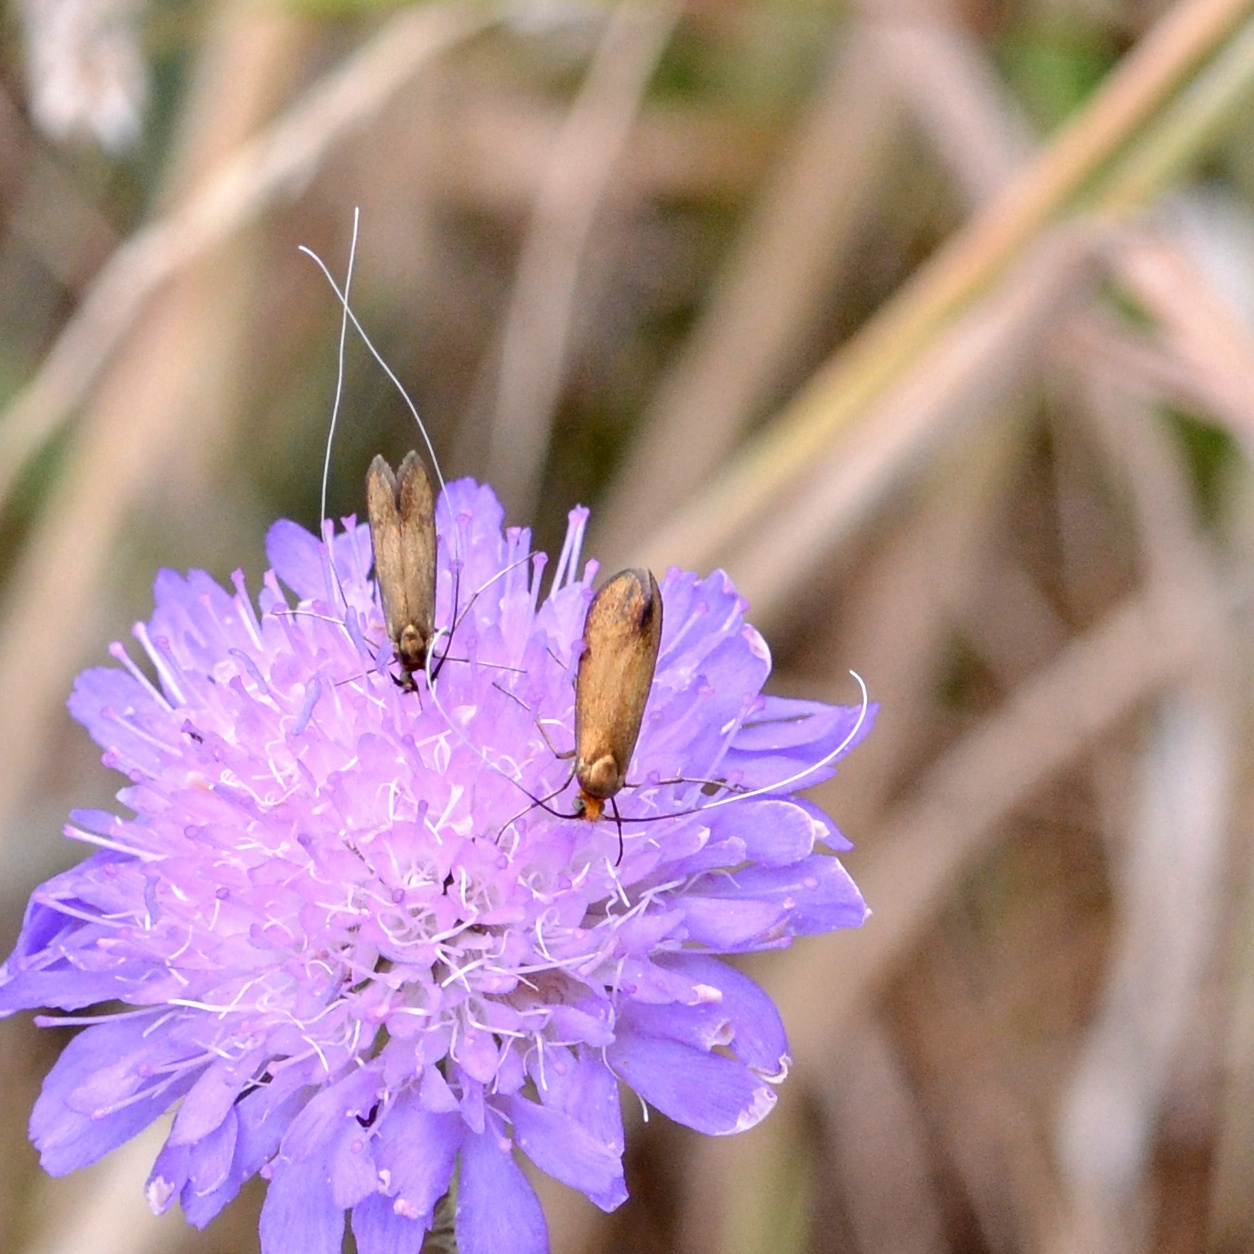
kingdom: Animalia
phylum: Arthropoda
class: Insecta
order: Lepidoptera
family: Adelidae
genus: Nemophora
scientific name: Nemophora metallica
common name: Brassy long-horn
